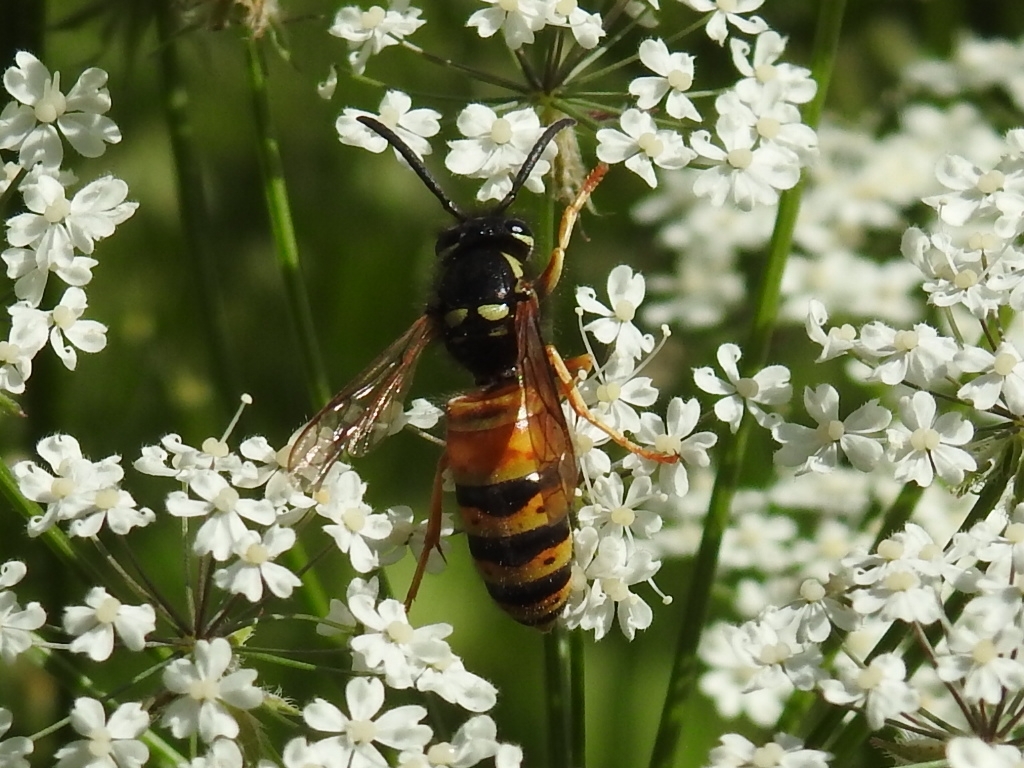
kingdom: Animalia
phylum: Arthropoda
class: Insecta
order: Hymenoptera
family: Vespidae
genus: Vespula
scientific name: Vespula rufa
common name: Red wasp
